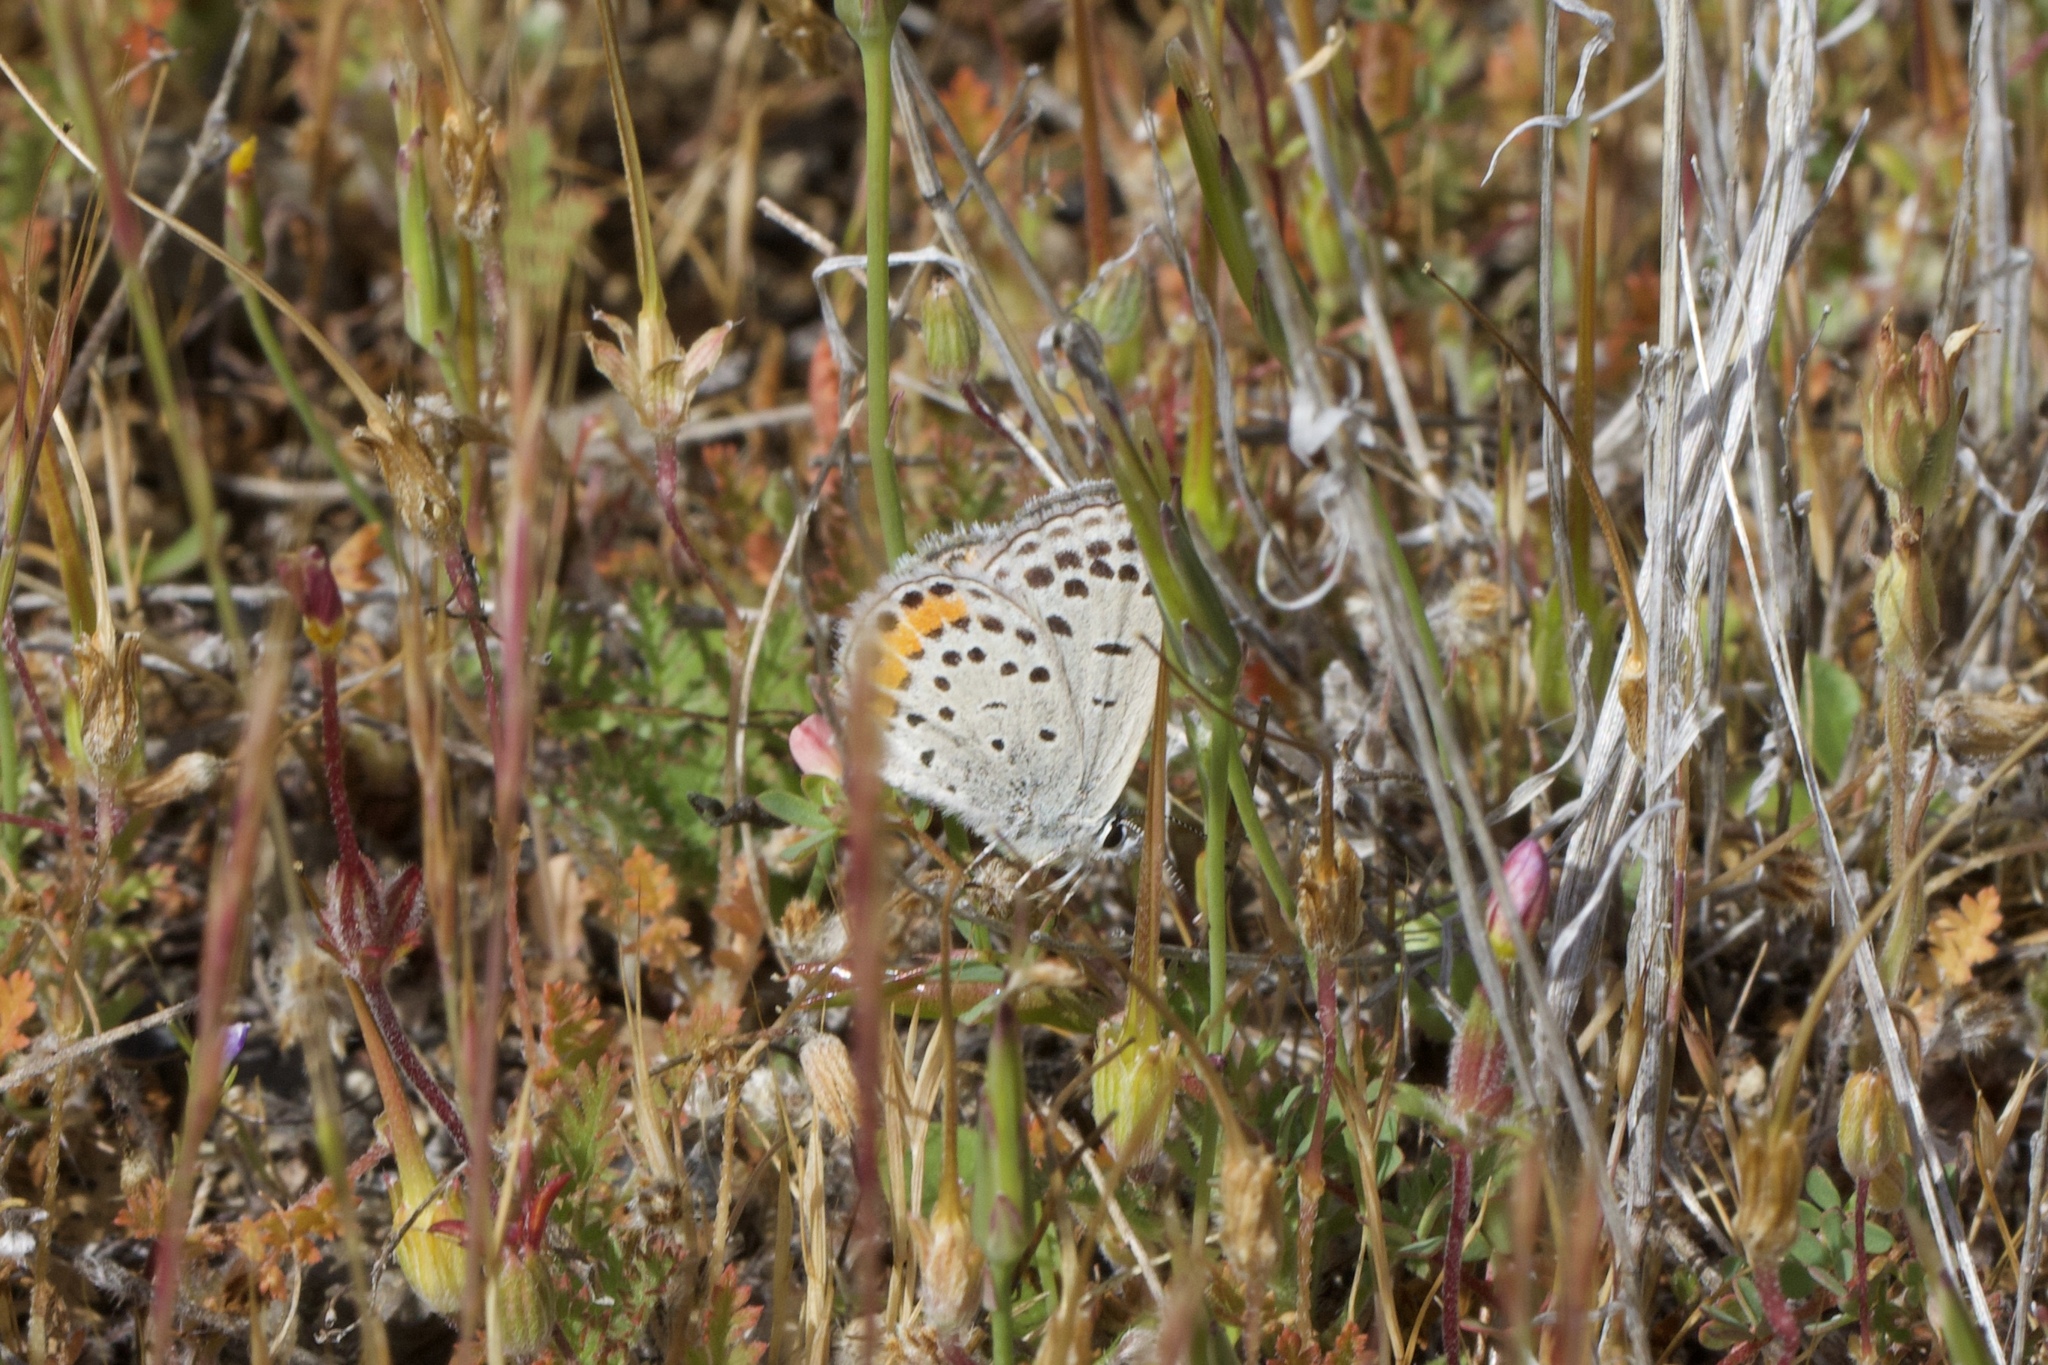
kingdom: Animalia
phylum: Arthropoda
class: Insecta
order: Lepidoptera
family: Lycaenidae
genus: Icaricia
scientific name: Icaricia acmon
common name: Acmon blue
